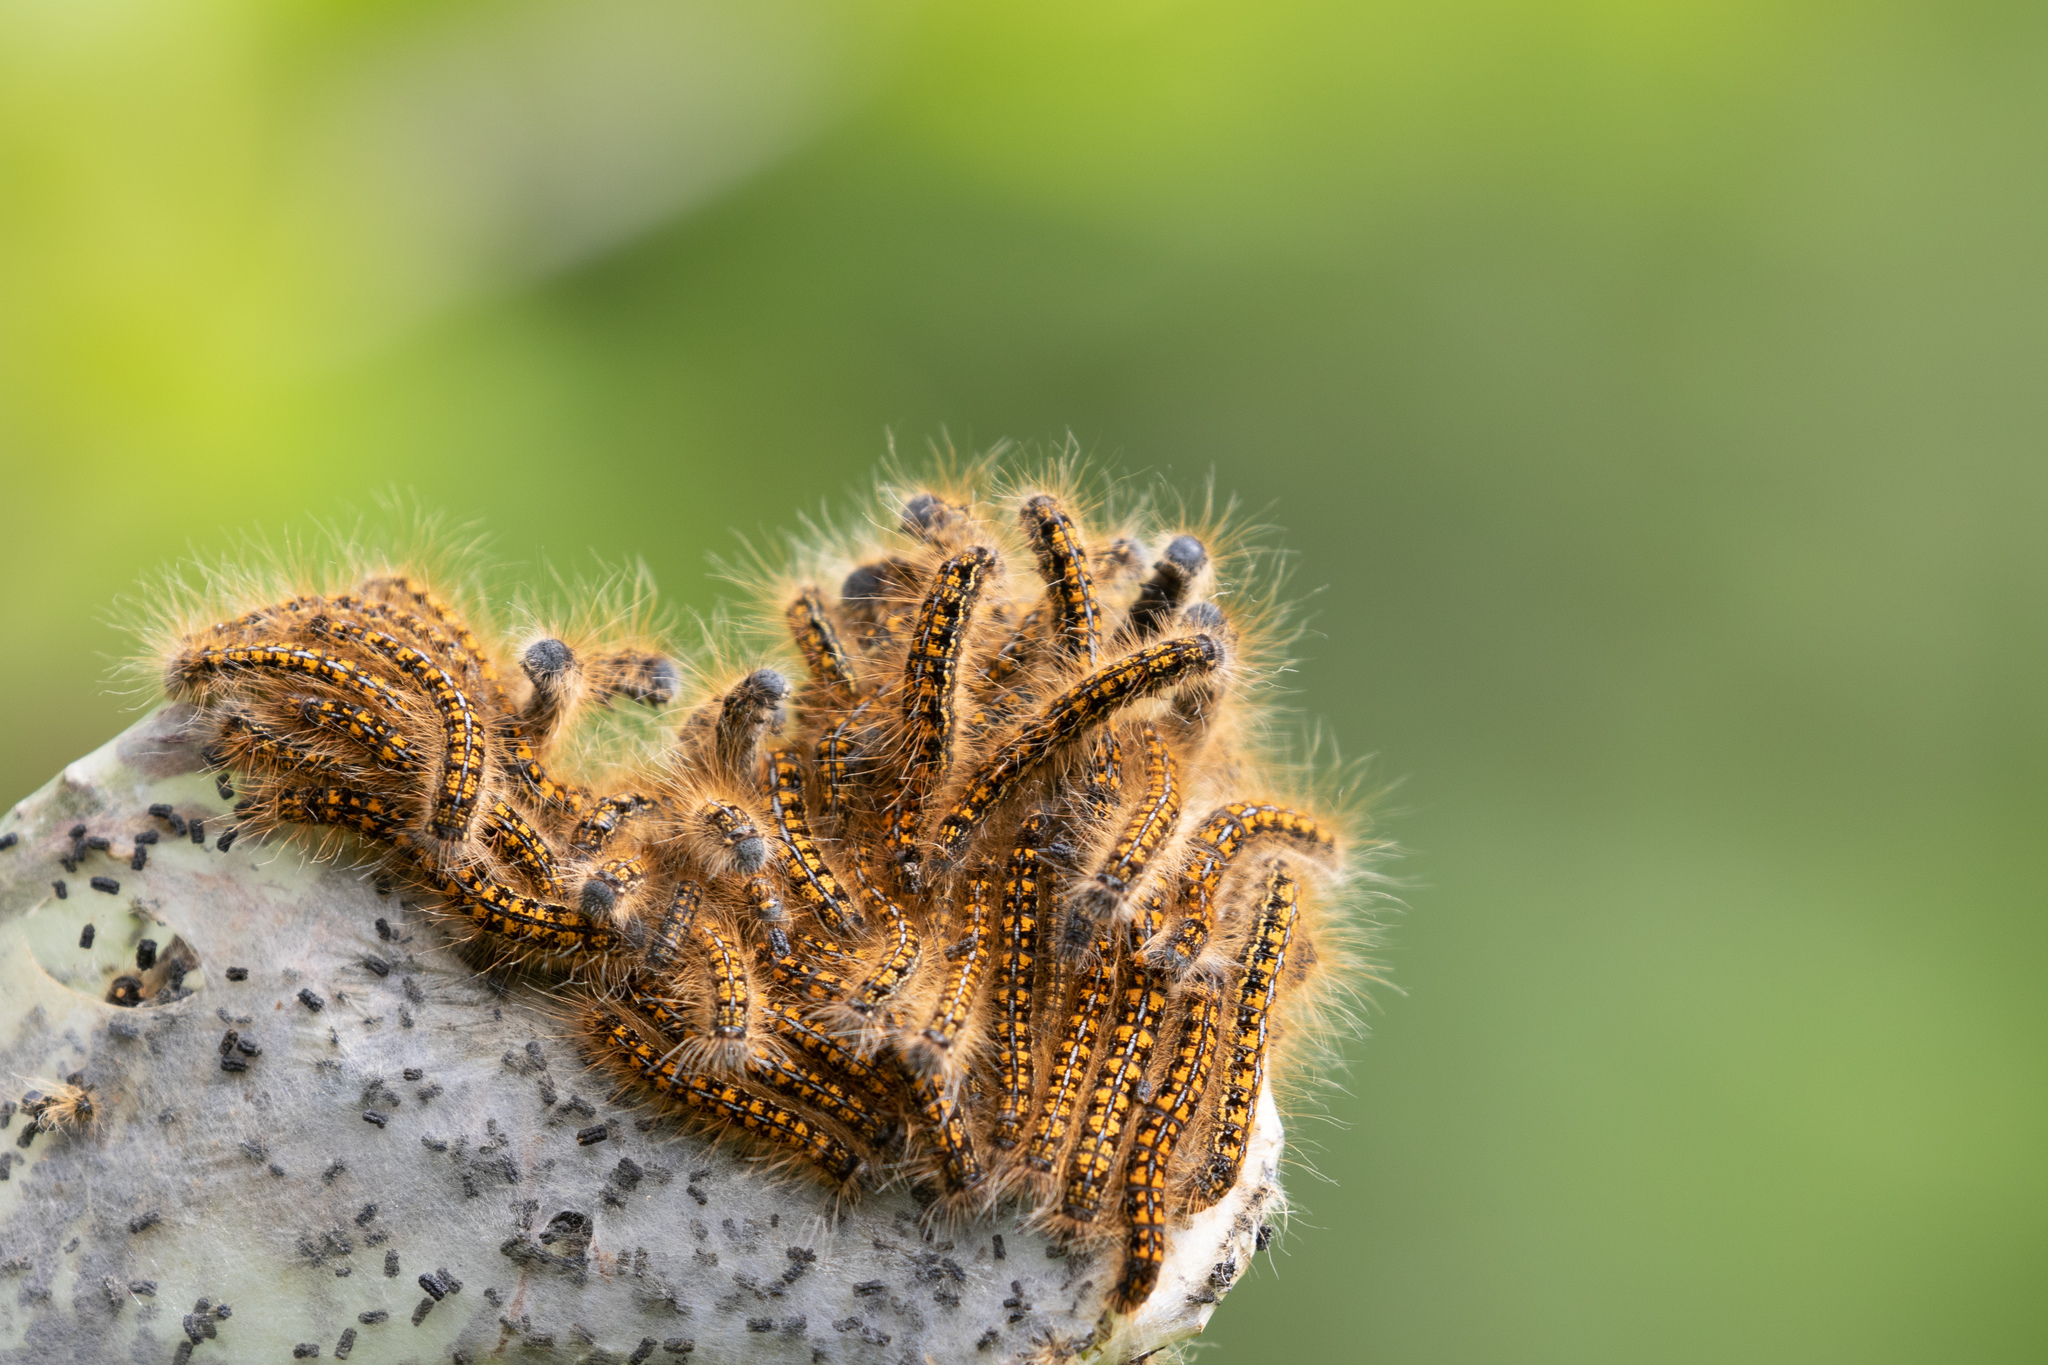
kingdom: Animalia
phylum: Arthropoda
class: Insecta
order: Lepidoptera
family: Lasiocampidae
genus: Malacosoma
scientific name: Malacosoma californica
